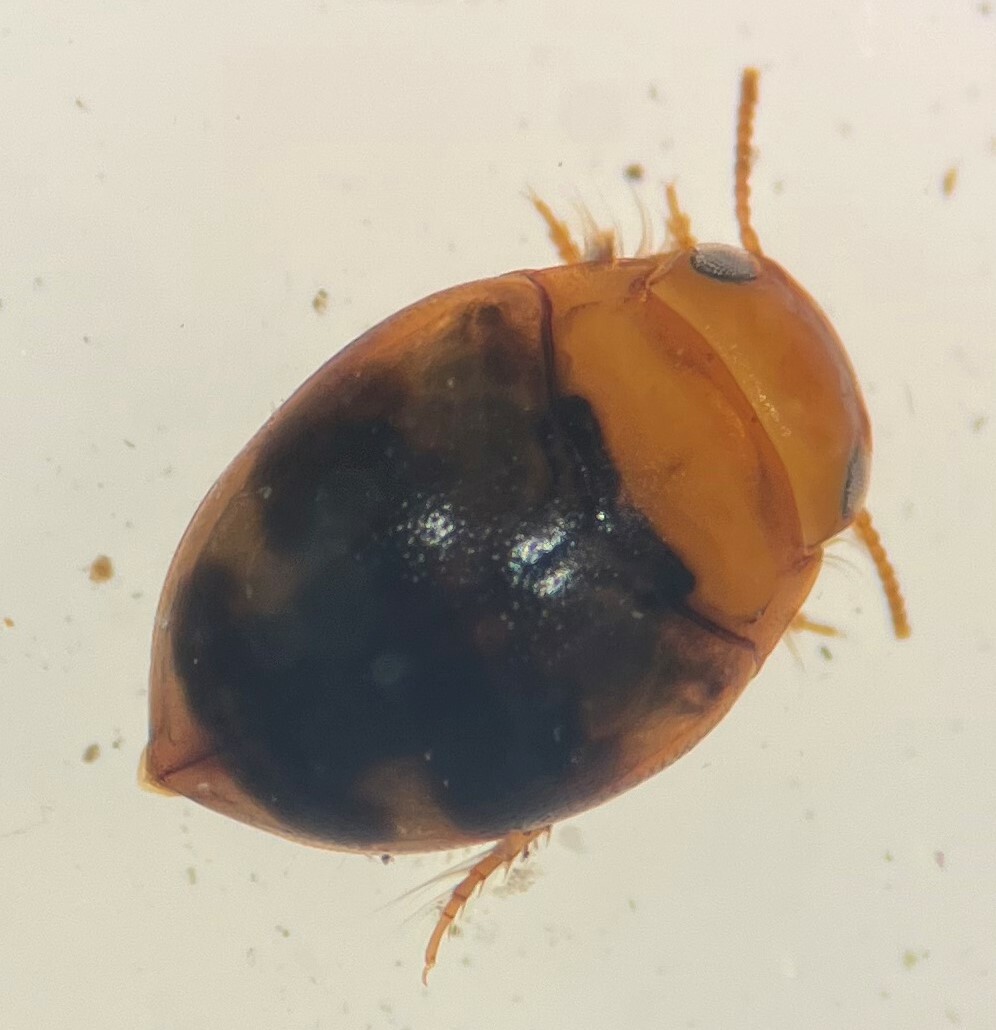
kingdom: Animalia
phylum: Arthropoda
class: Insecta
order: Coleoptera
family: Dytiscidae
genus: Hydrovatus
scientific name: Hydrovatus pustulatus
